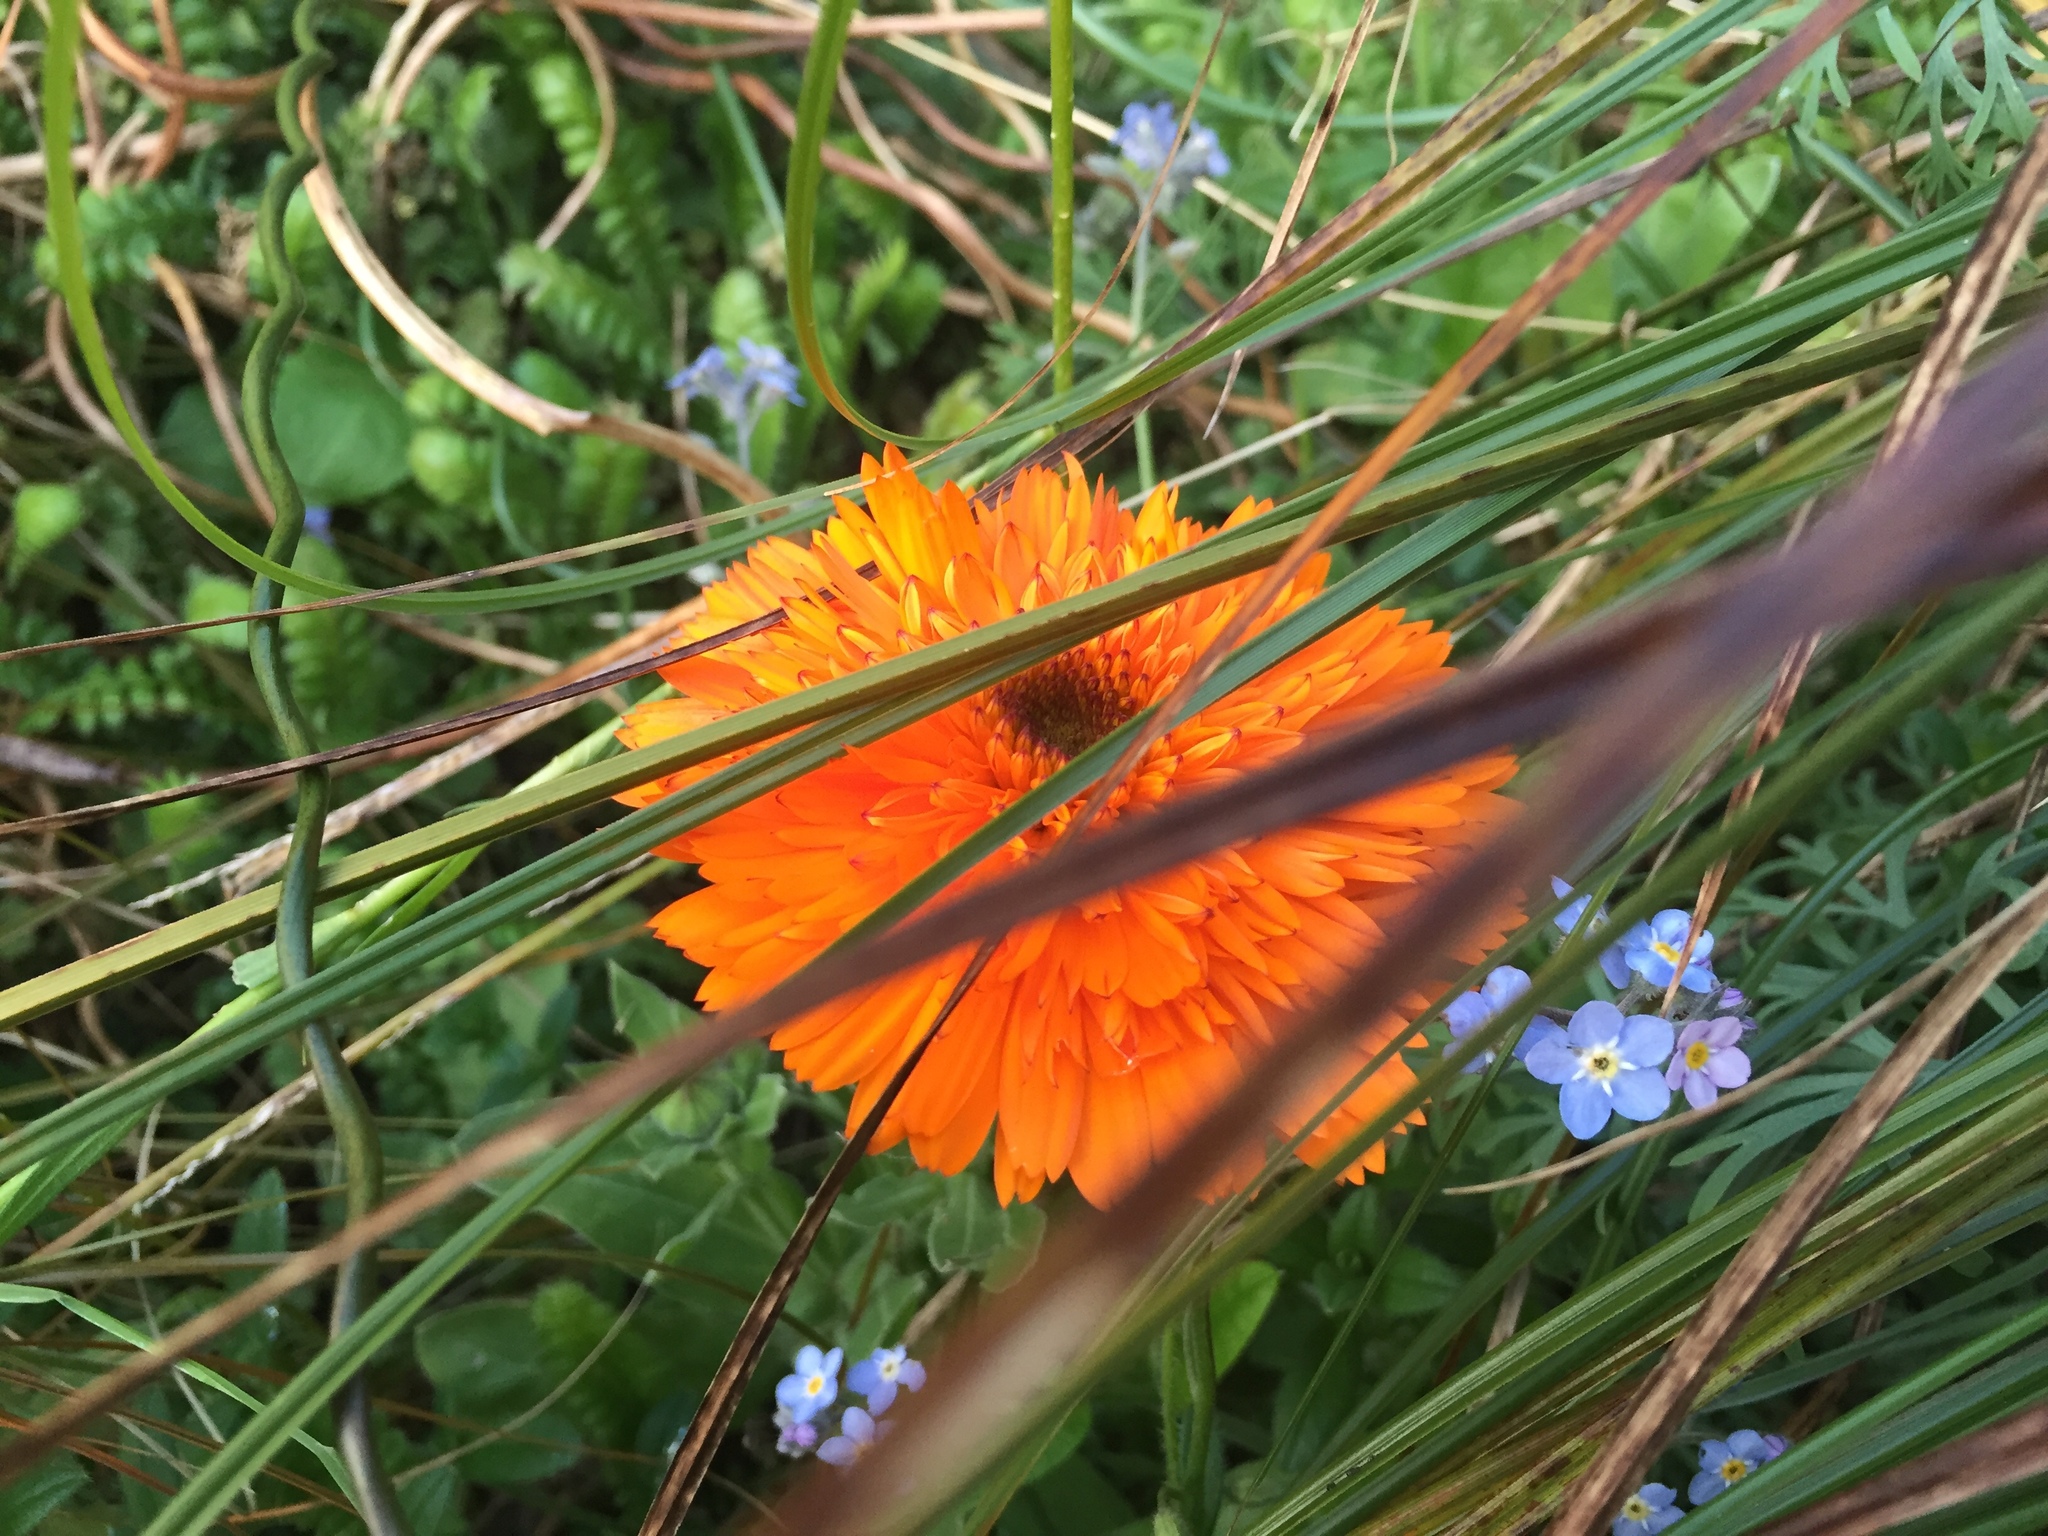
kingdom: Plantae
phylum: Tracheophyta
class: Magnoliopsida
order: Asterales
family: Asteraceae
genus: Calendula
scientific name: Calendula officinalis
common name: Pot marigold
